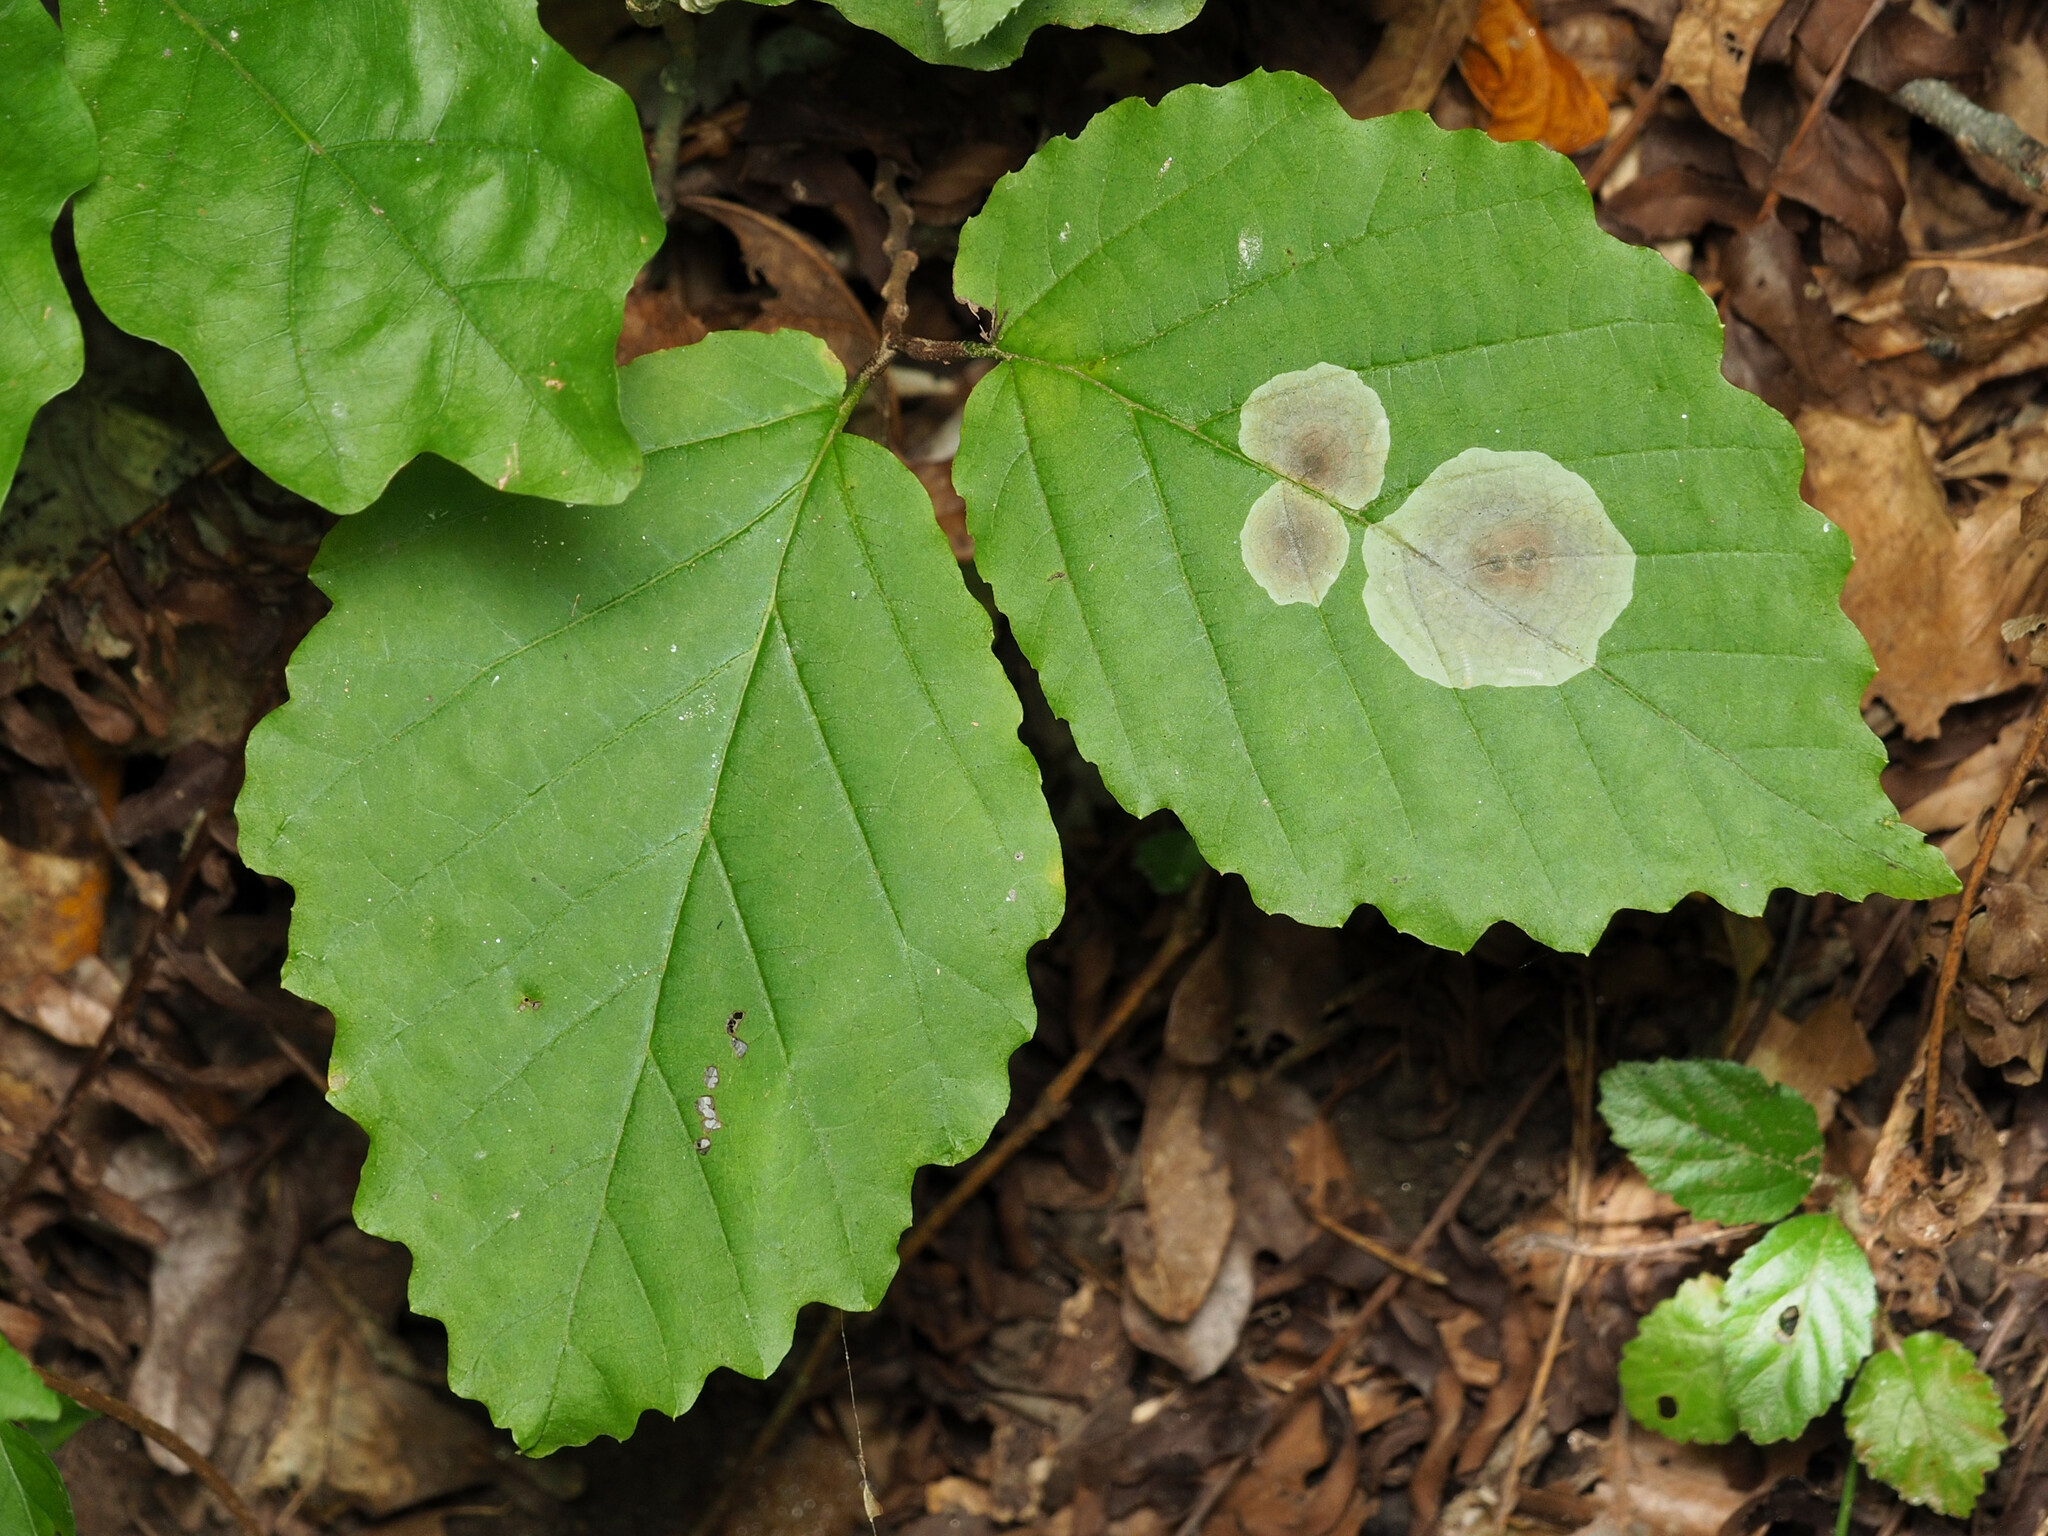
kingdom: Animalia
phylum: Arthropoda
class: Insecta
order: Lepidoptera
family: Gracillariidae
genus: Cameraria
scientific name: Cameraria hamameliella
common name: Witchhazel leafminer
